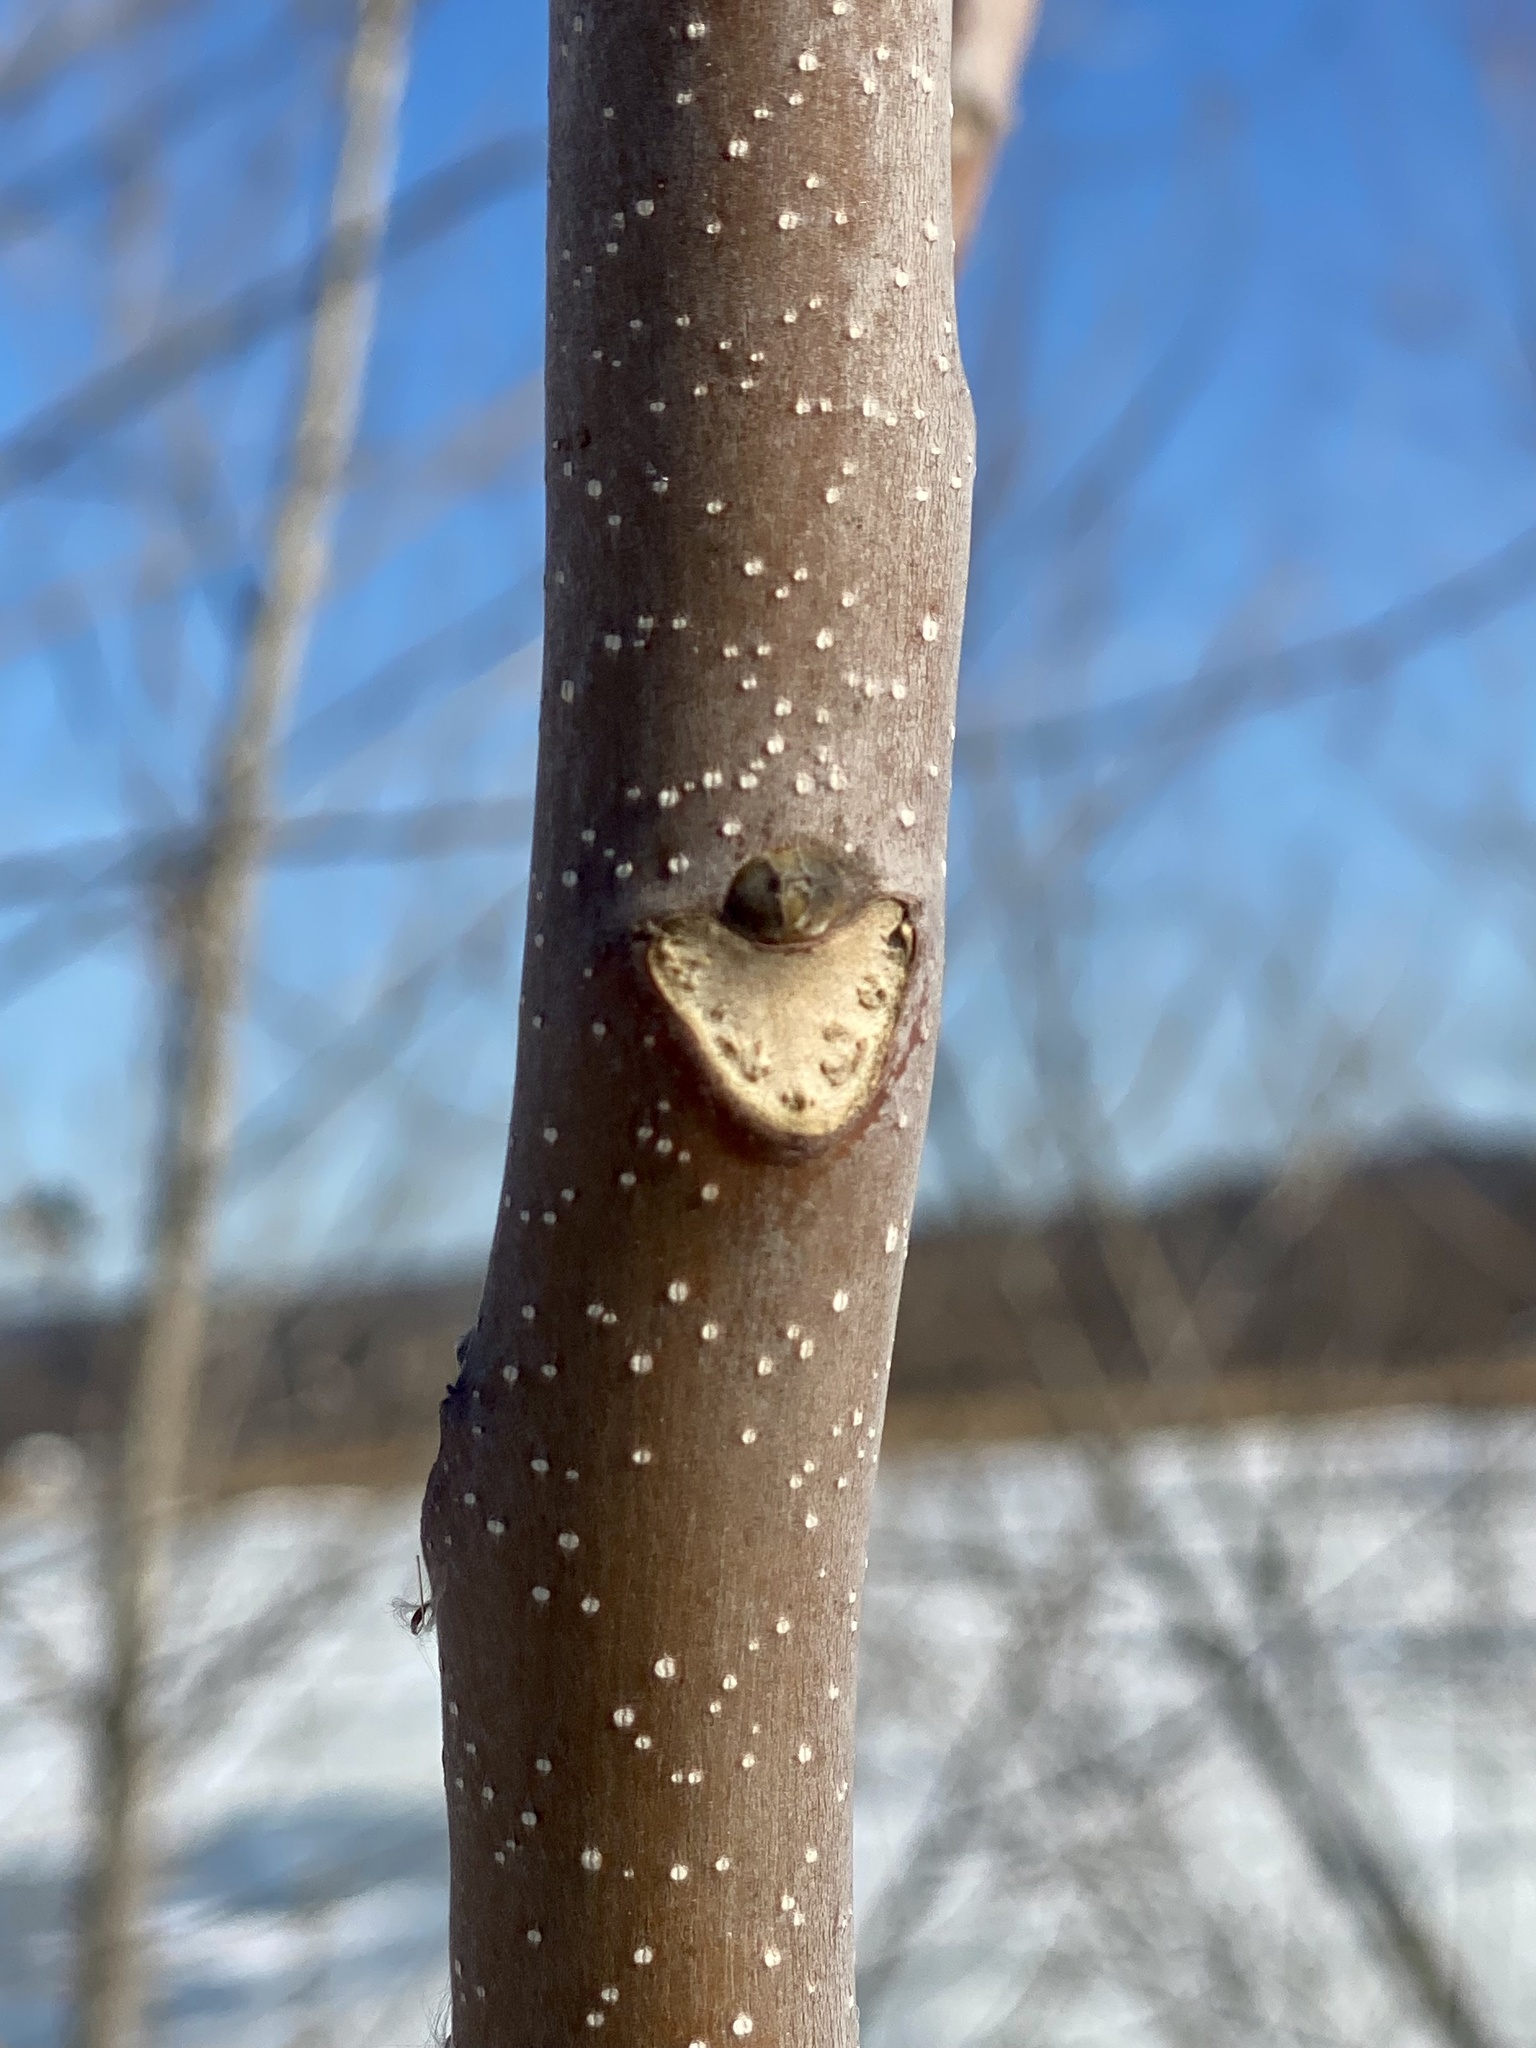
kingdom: Plantae
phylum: Tracheophyta
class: Magnoliopsida
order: Sapindales
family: Simaroubaceae
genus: Ailanthus
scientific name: Ailanthus altissima
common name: Tree-of-heaven
